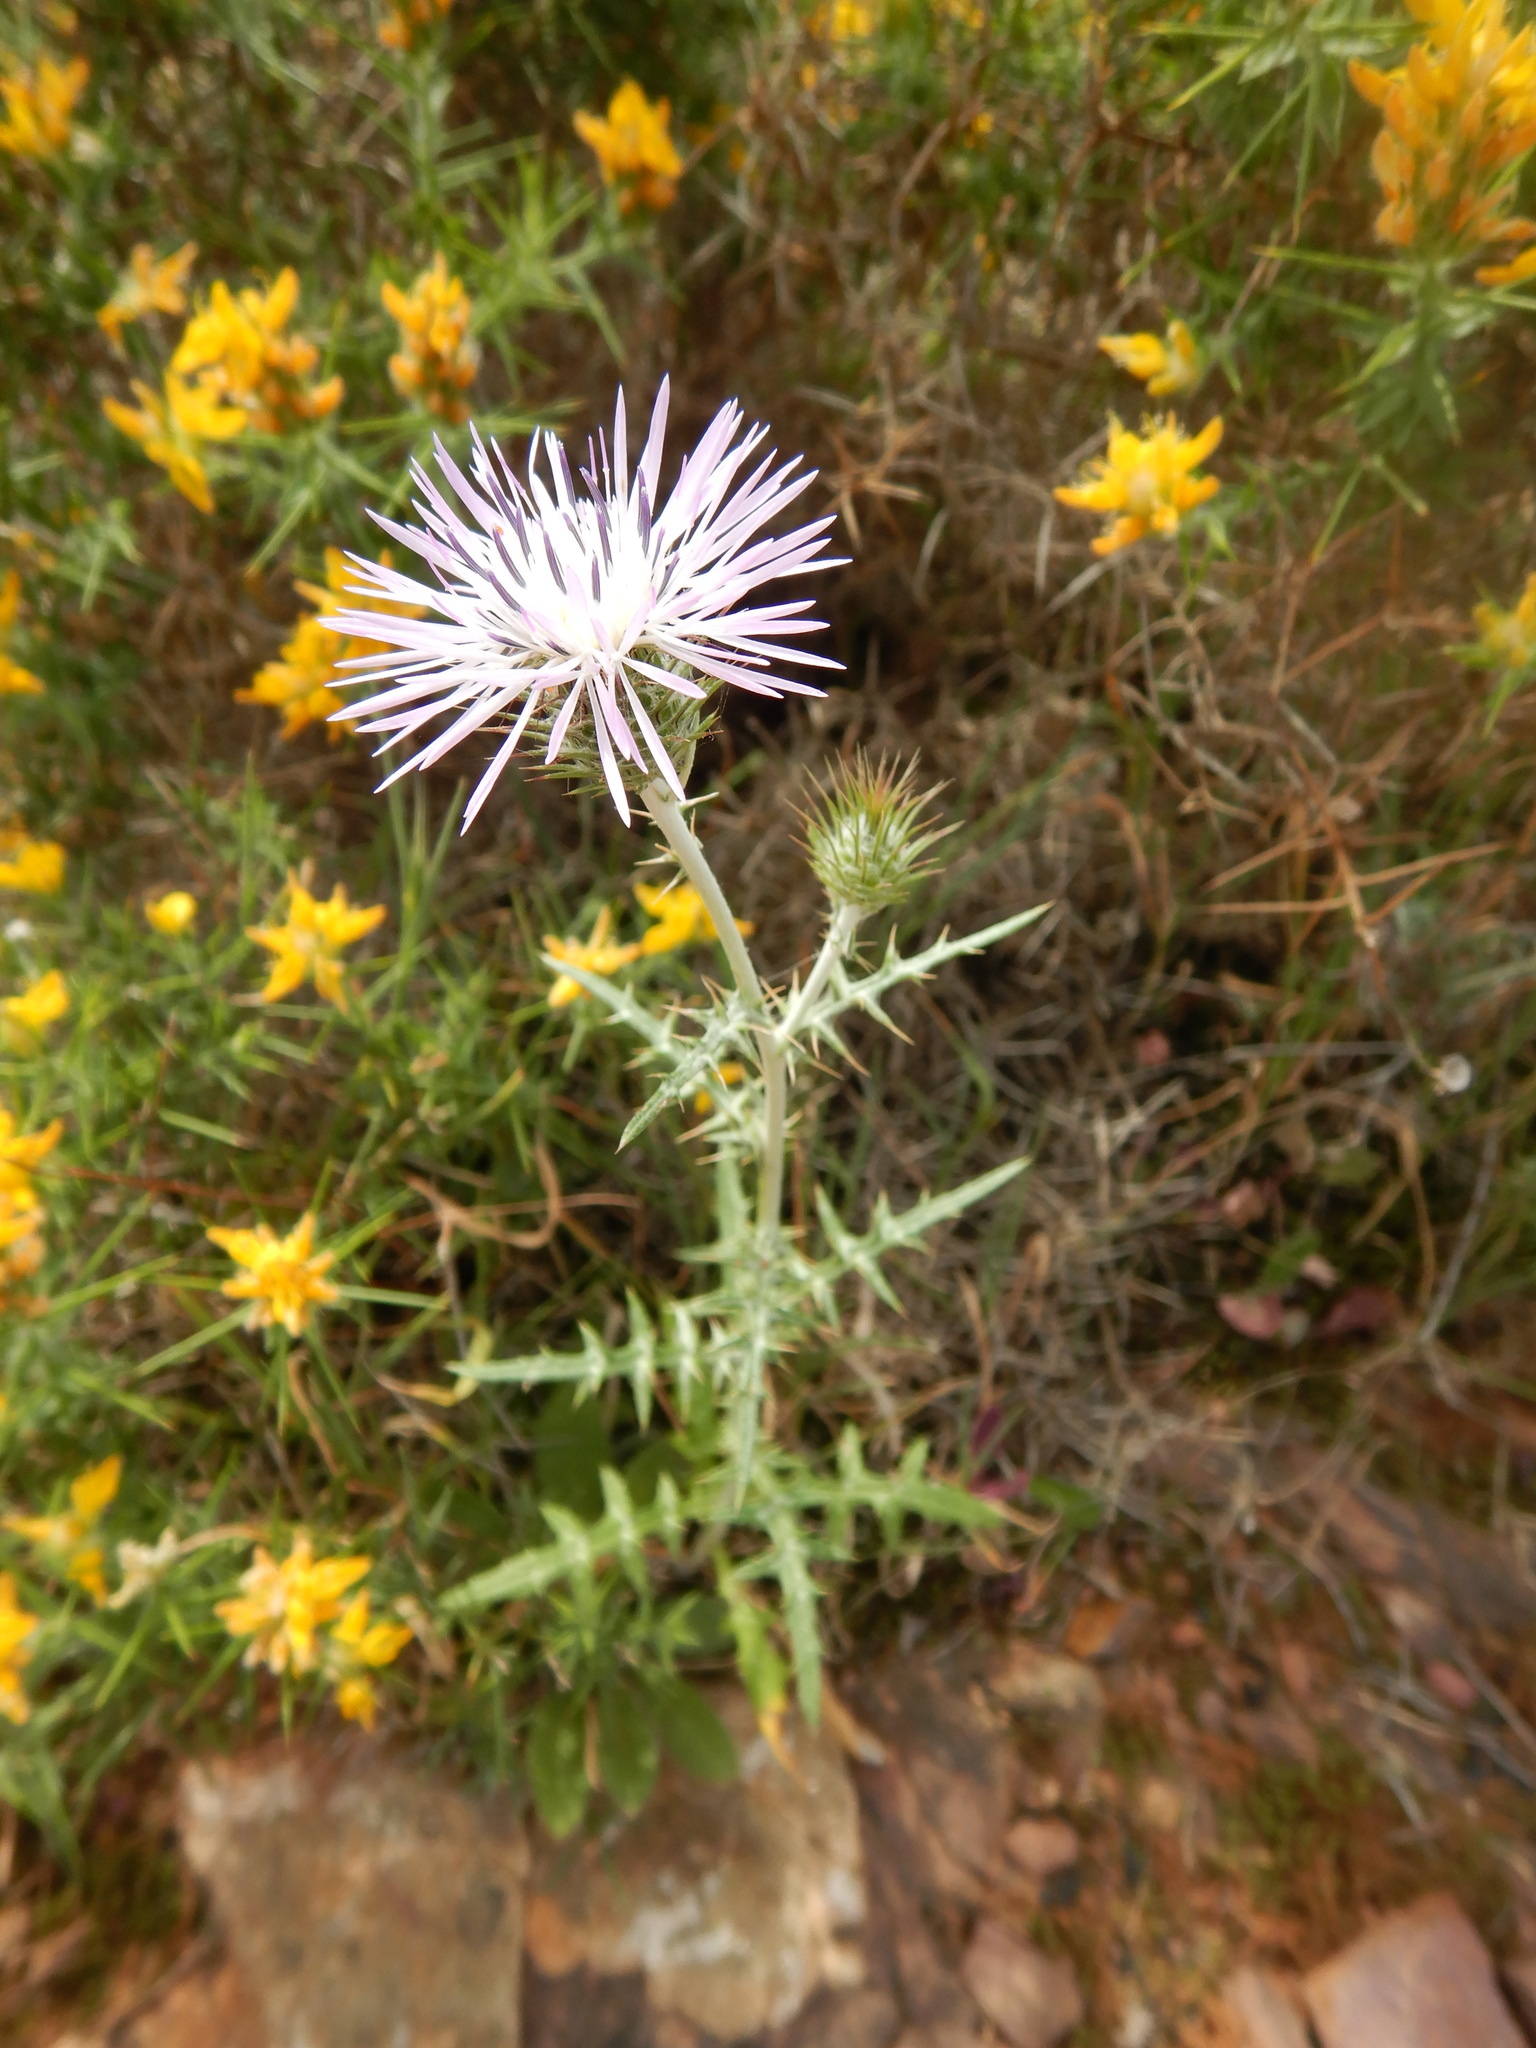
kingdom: Plantae
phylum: Tracheophyta
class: Magnoliopsida
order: Asterales
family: Asteraceae
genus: Galactites
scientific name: Galactites tomentosa
